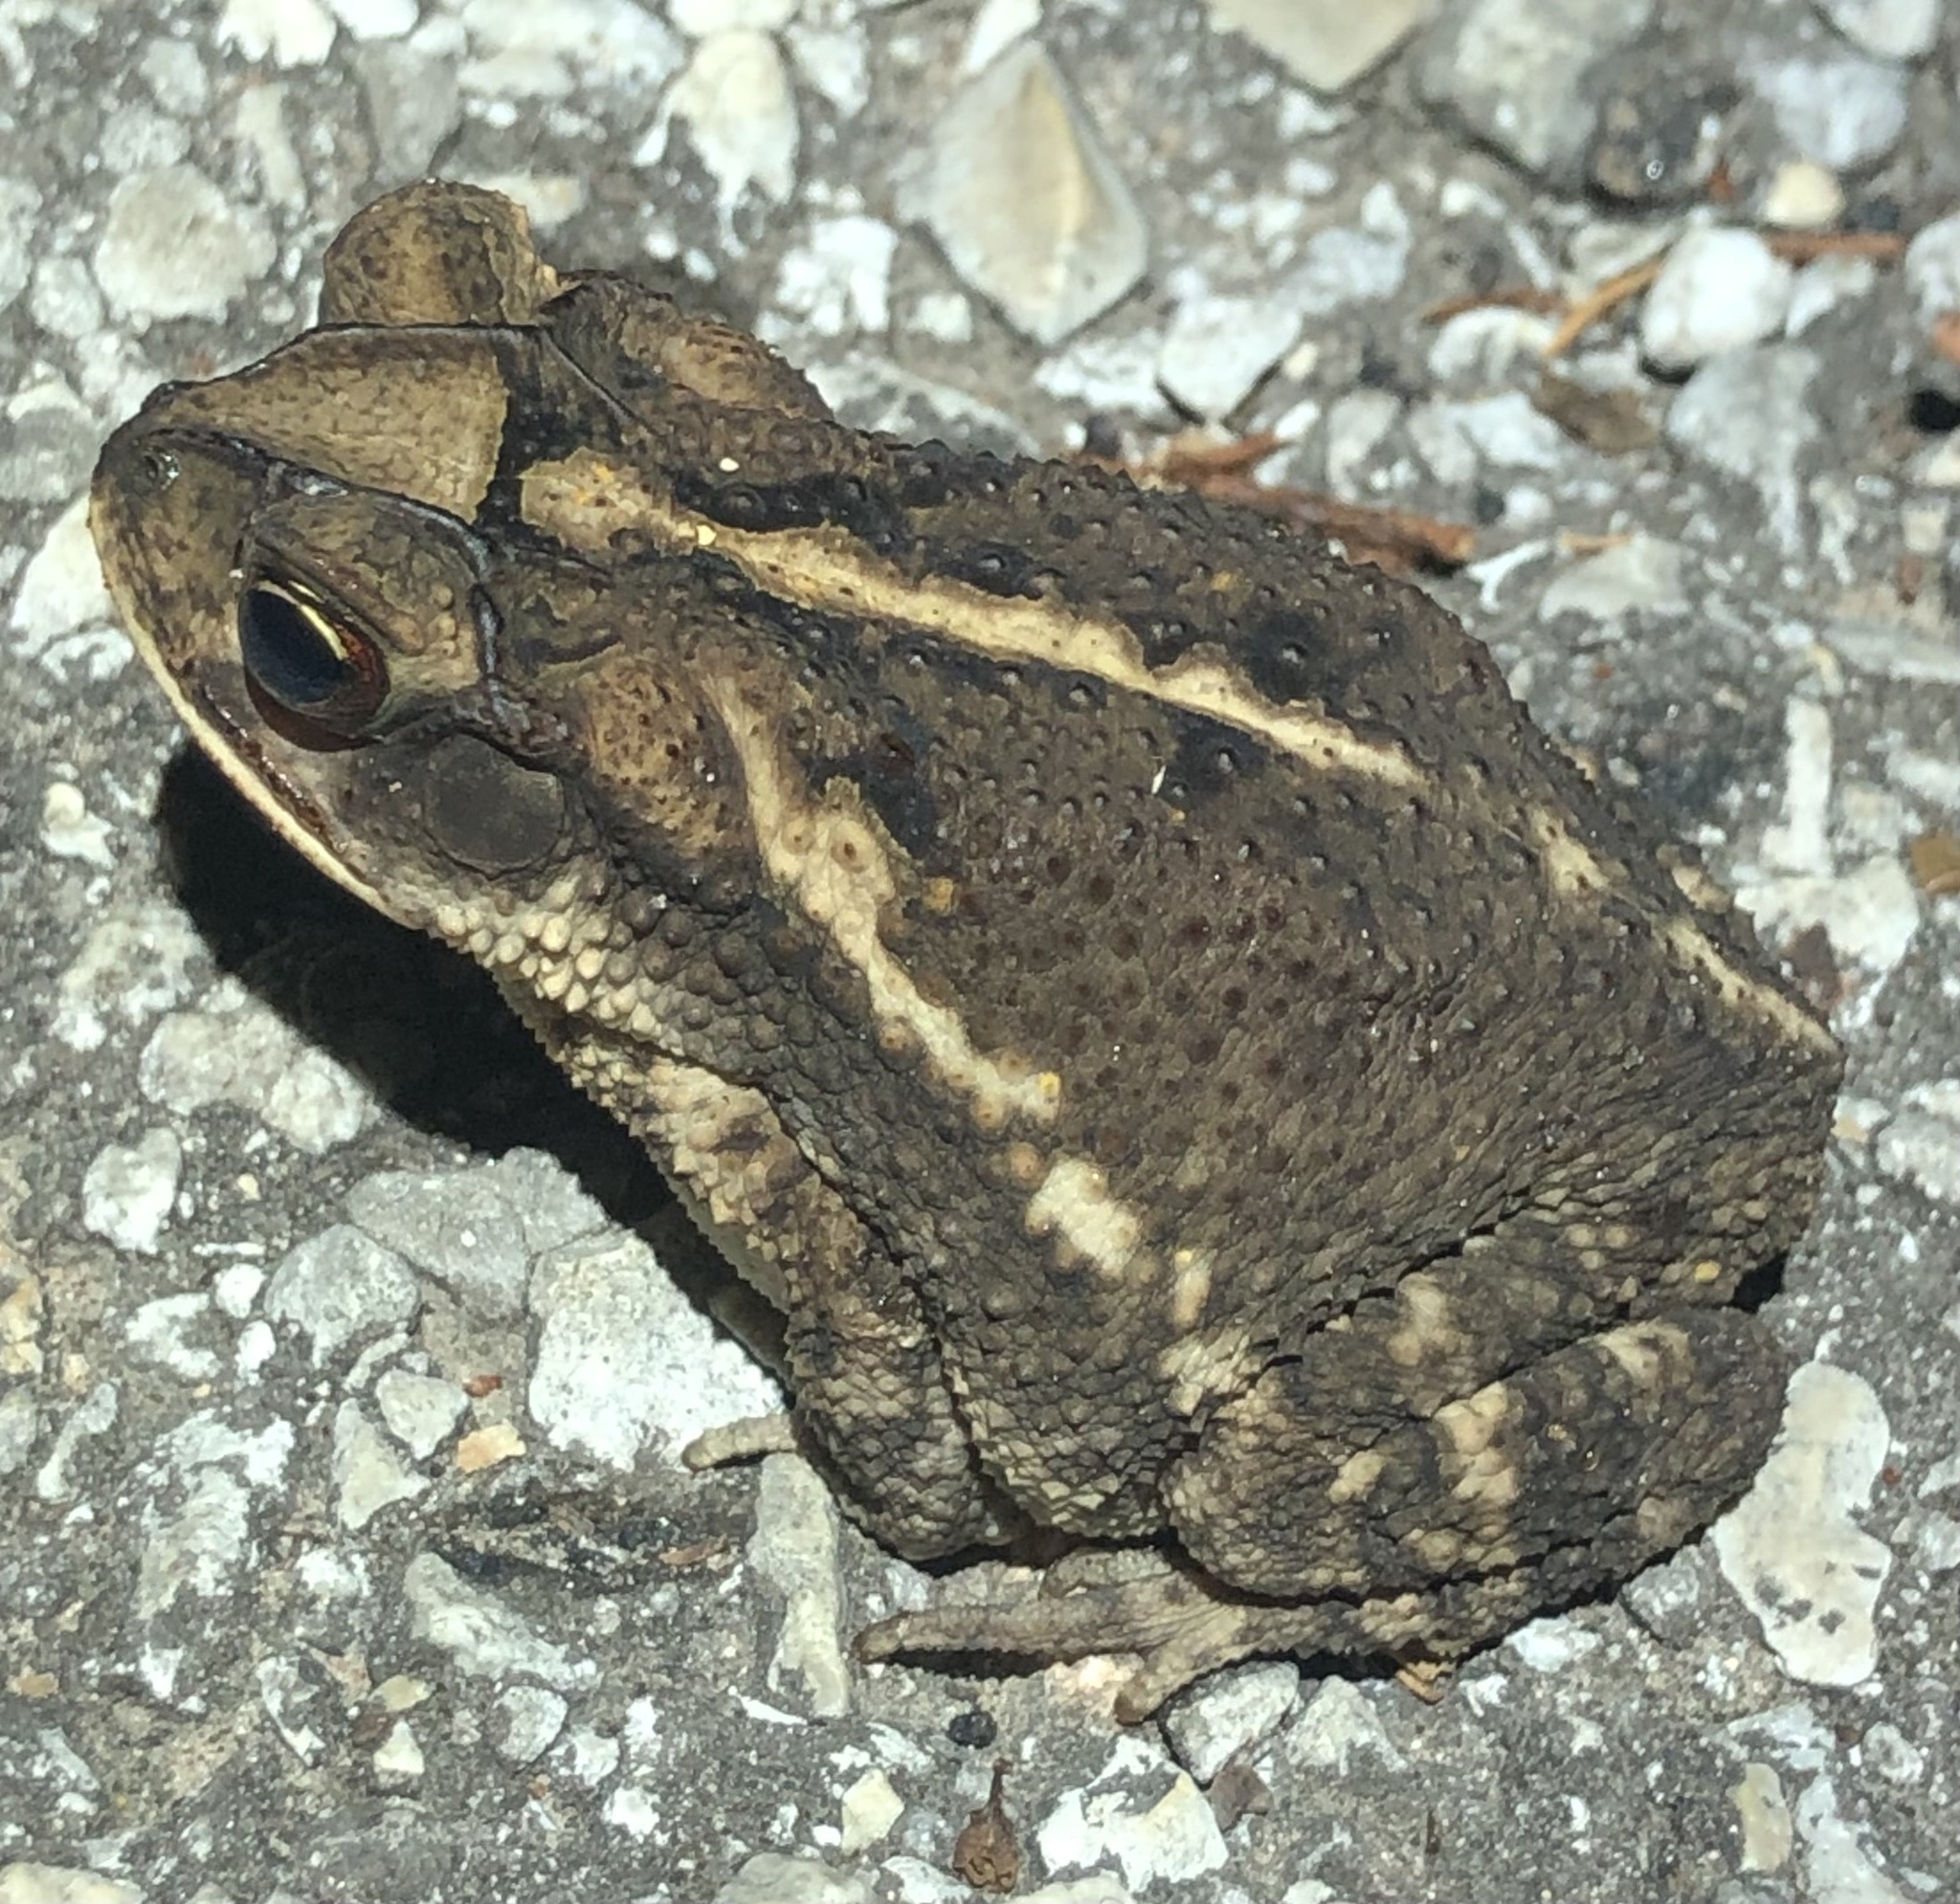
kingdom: Animalia
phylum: Chordata
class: Amphibia
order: Anura
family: Bufonidae
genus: Incilius
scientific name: Incilius nebulifer
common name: Gulf coast toad
